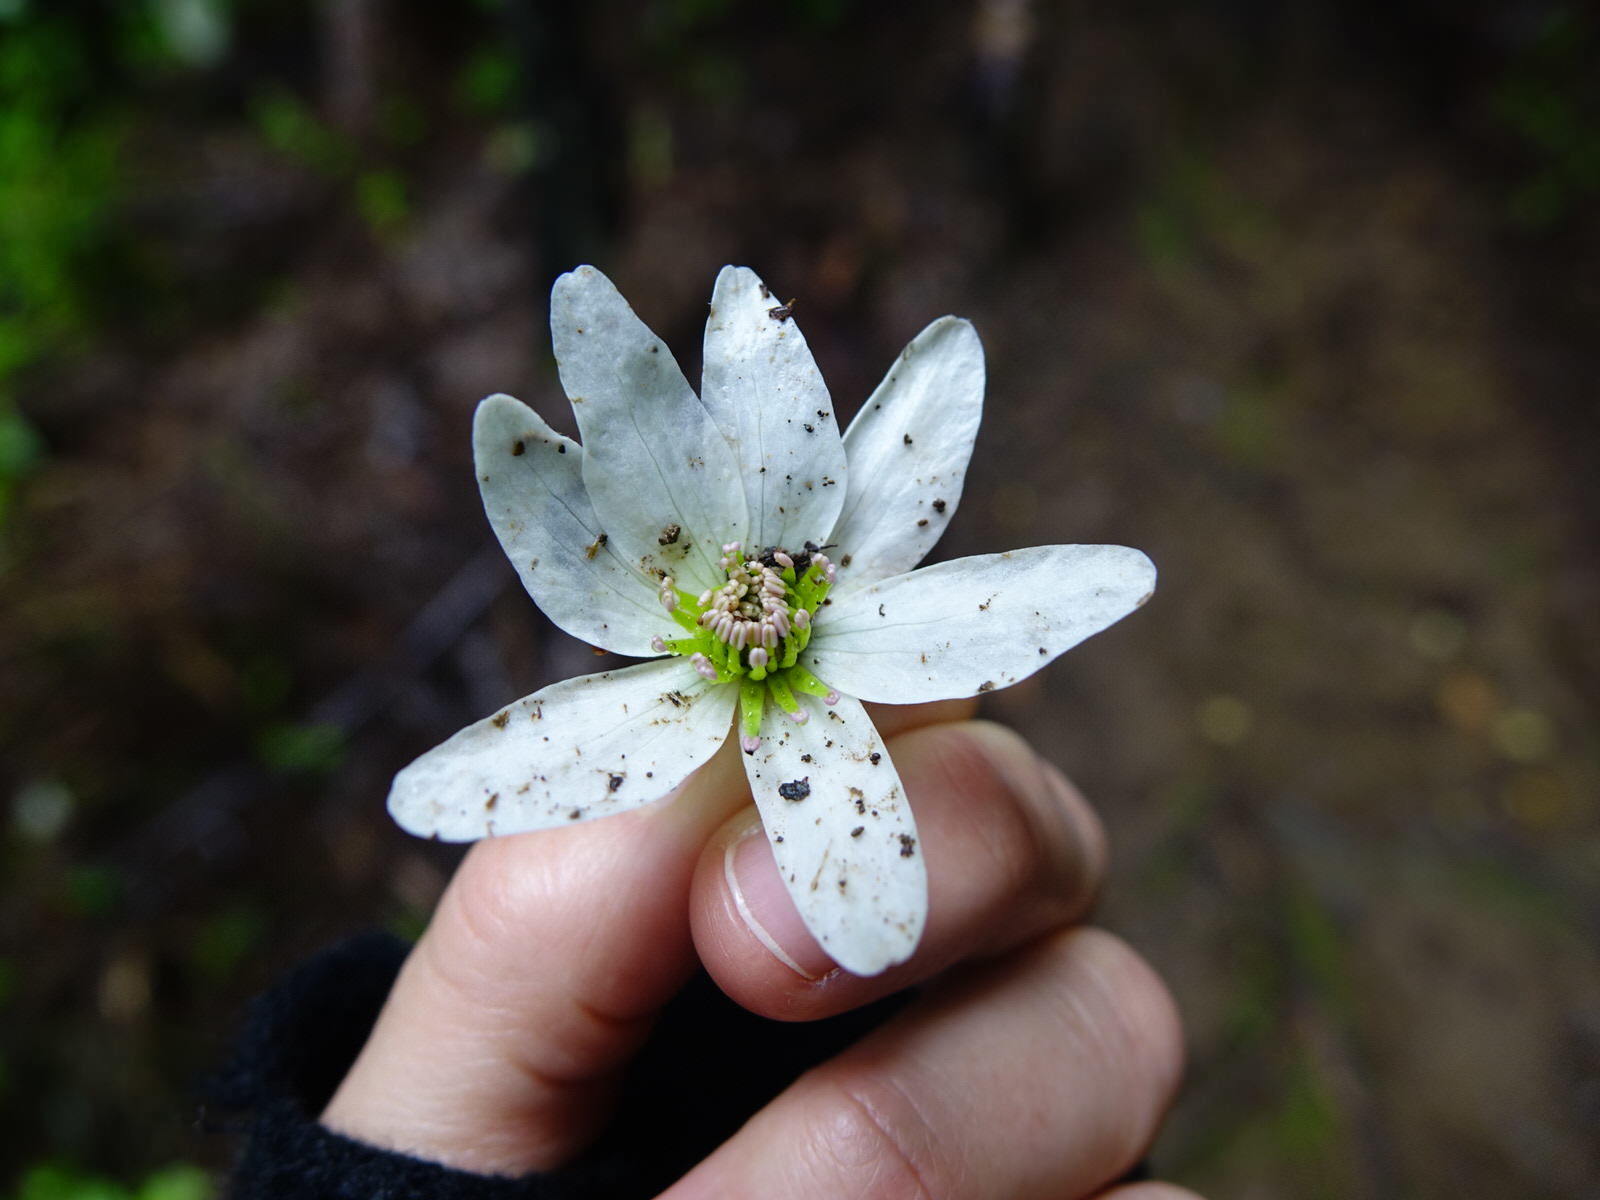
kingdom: Plantae
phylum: Tracheophyta
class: Magnoliopsida
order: Ranunculales
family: Ranunculaceae
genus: Clematis
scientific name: Clematis paniculata
